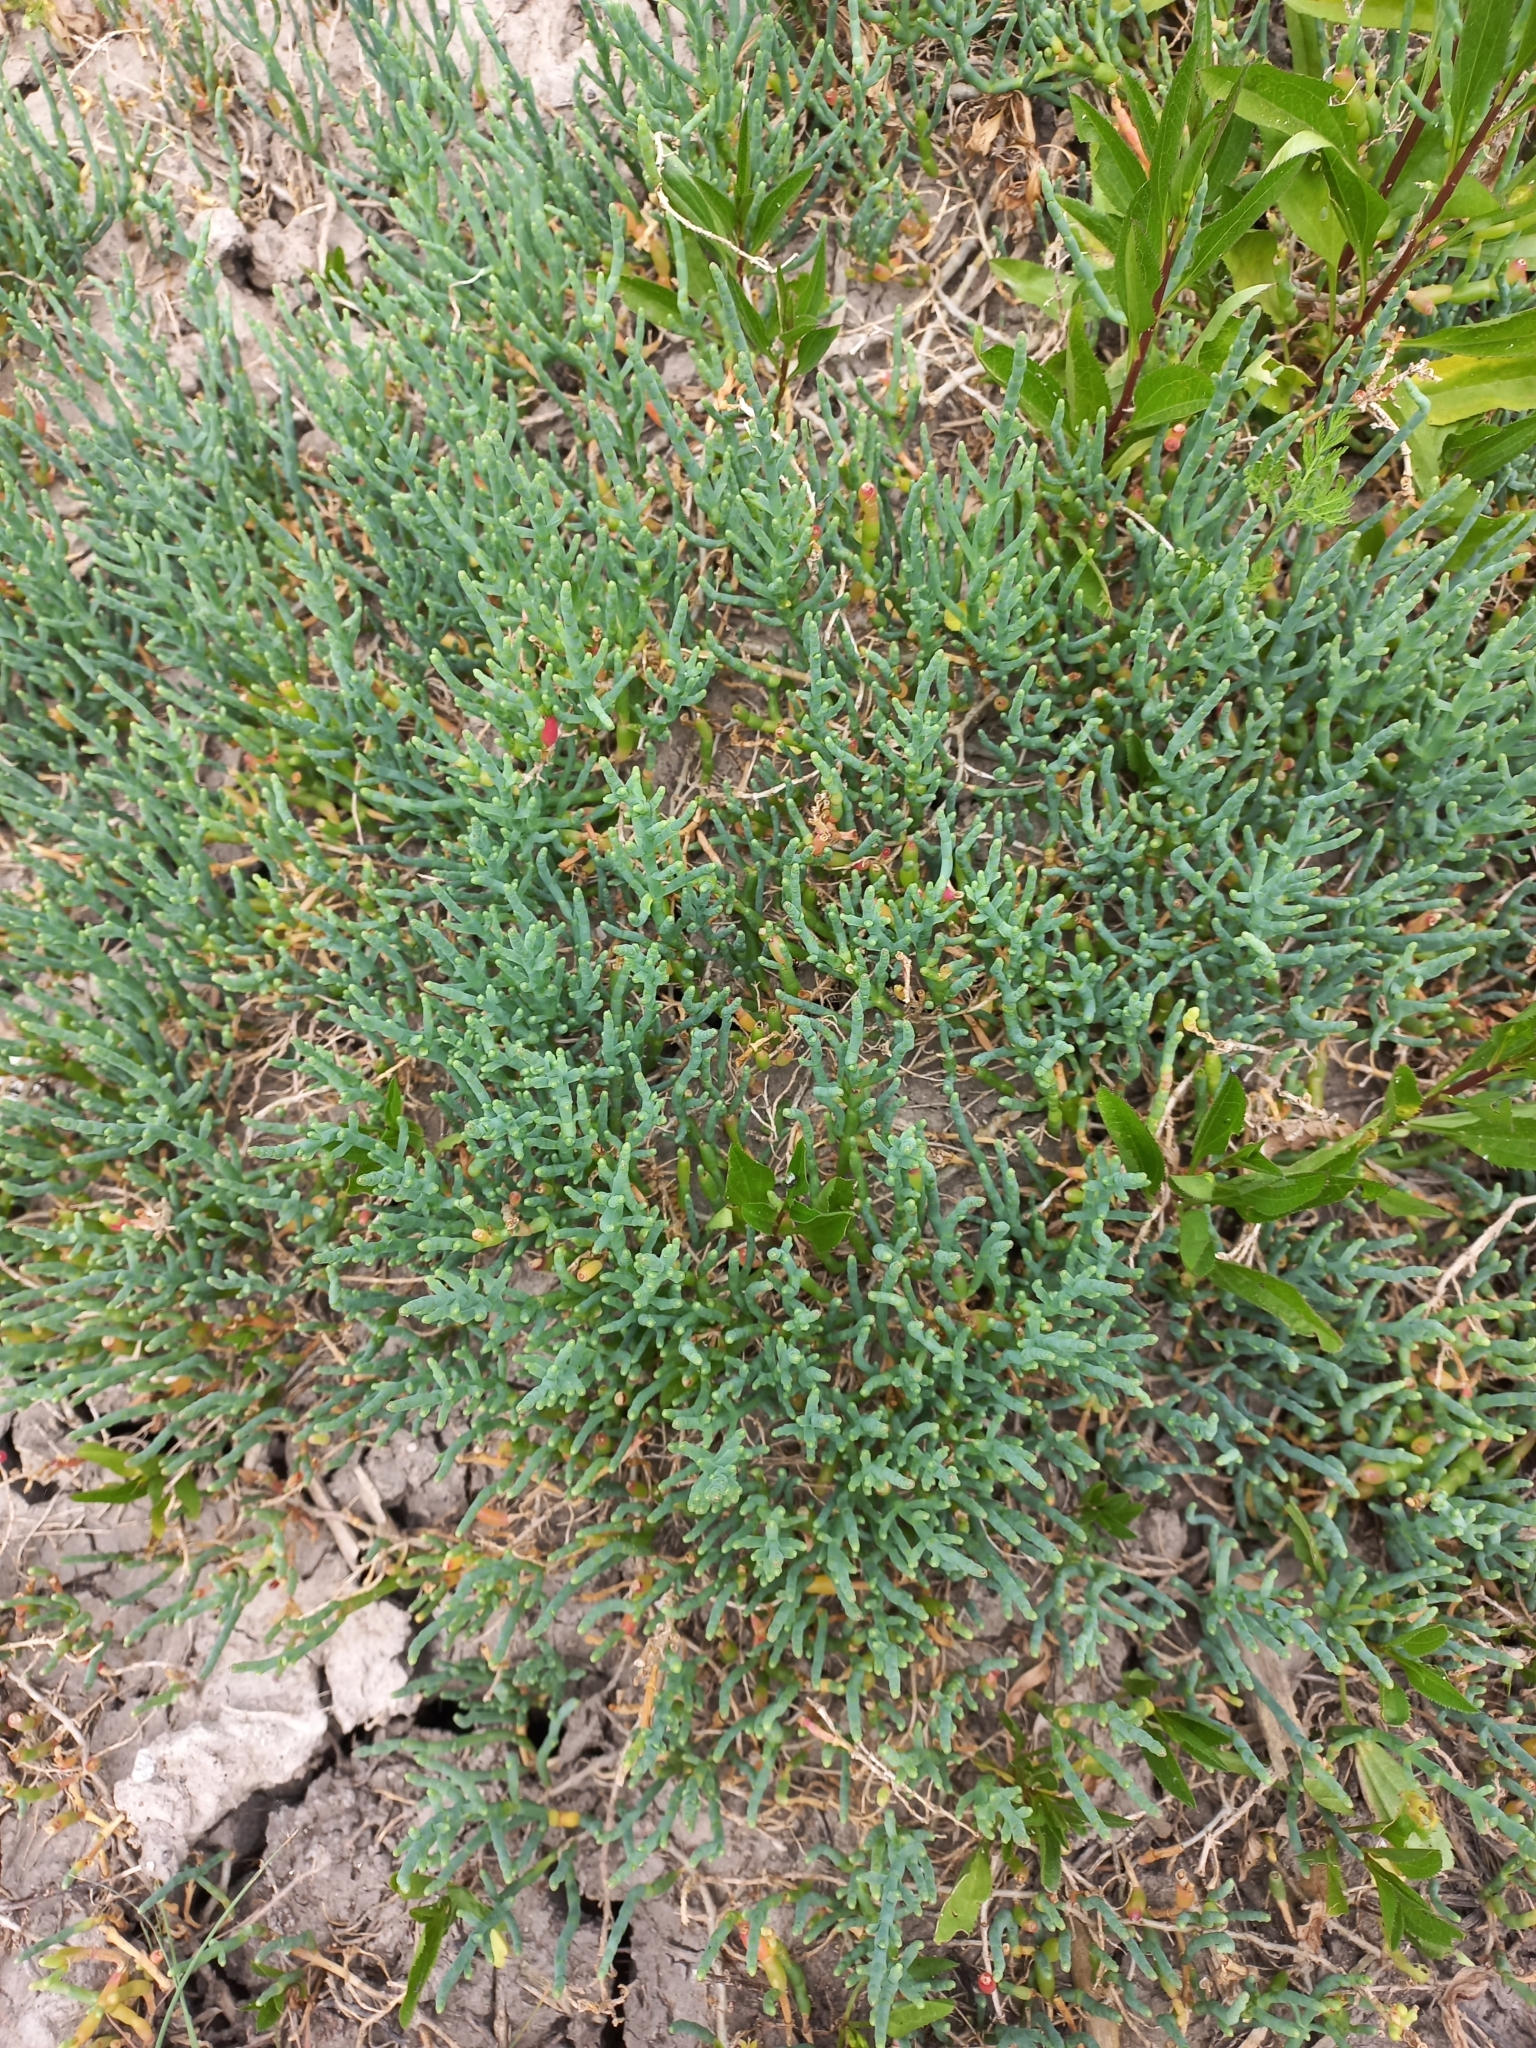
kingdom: Plantae
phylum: Tracheophyta
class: Magnoliopsida
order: Caryophyllales
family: Amaranthaceae
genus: Salicornia
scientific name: Salicornia neei
